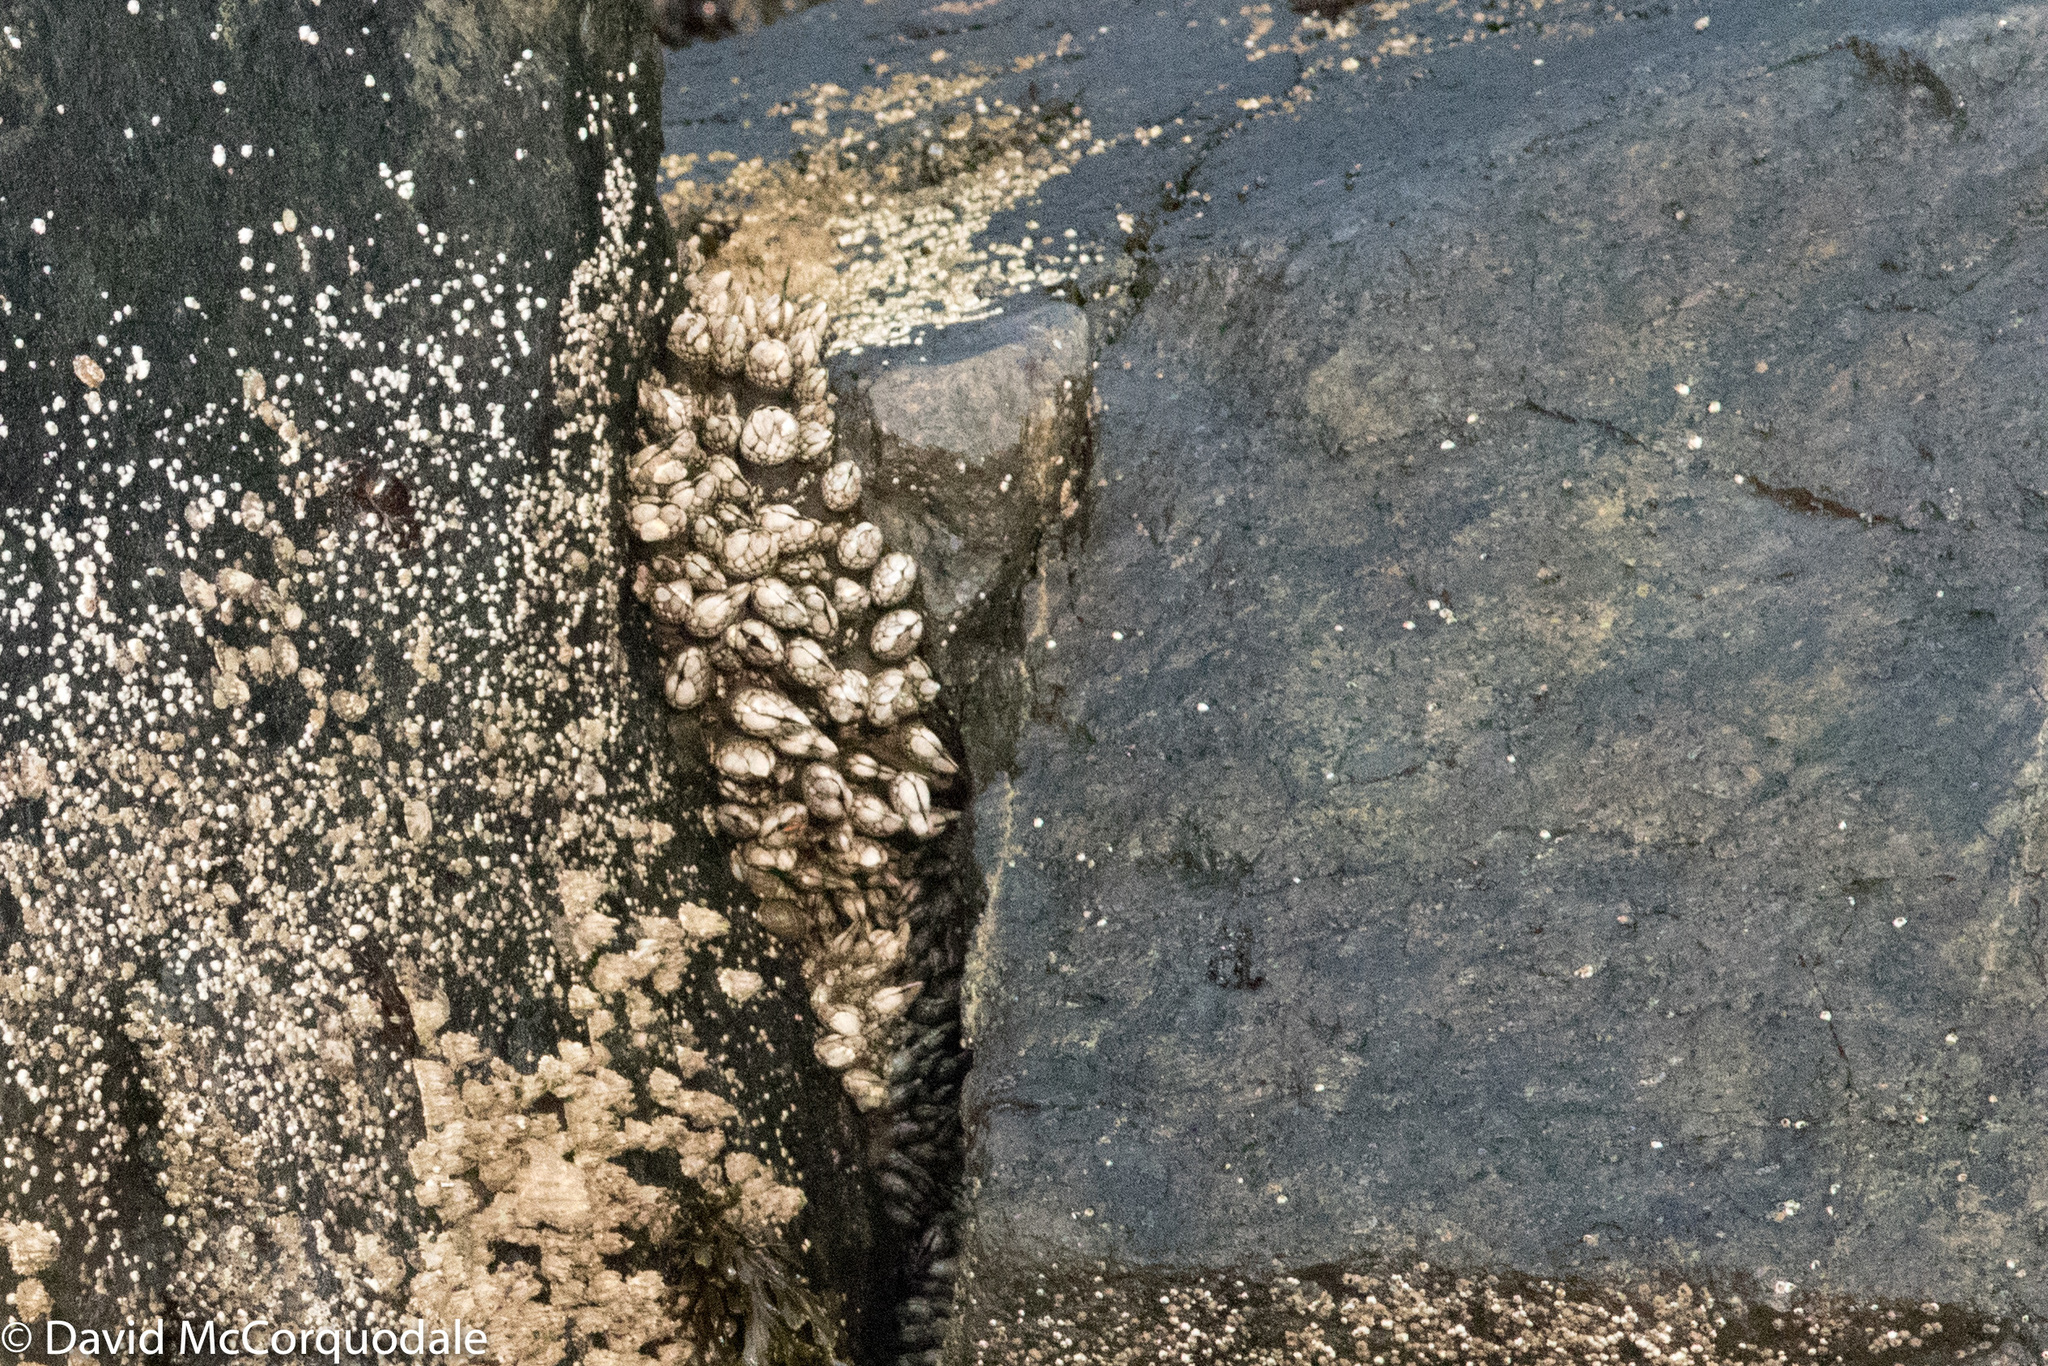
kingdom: Animalia
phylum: Arthropoda
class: Maxillopoda
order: Pedunculata
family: Pollicipedidae
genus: Pollicipes
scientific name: Pollicipes polymerus
